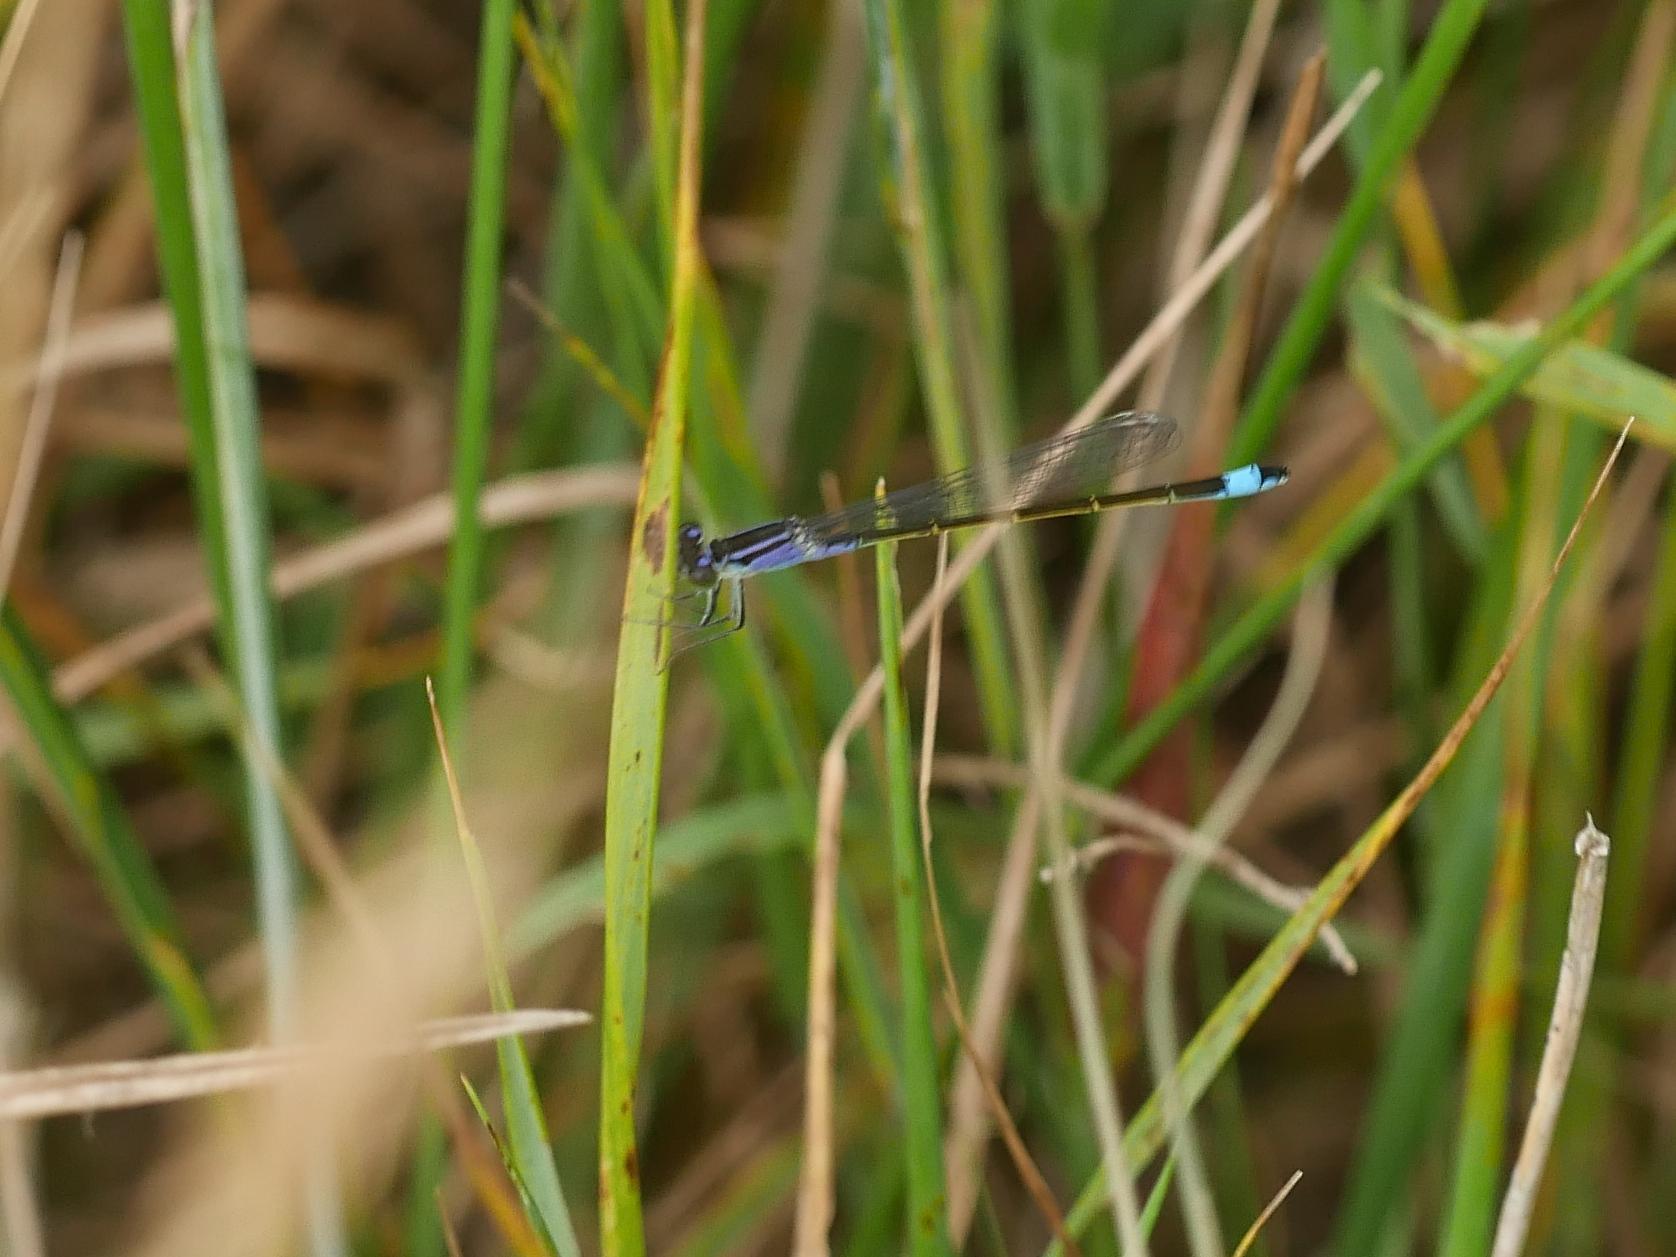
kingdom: Animalia
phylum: Arthropoda
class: Insecta
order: Odonata
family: Coenagrionidae
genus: Ischnura
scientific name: Ischnura elegans
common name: Blue-tailed damselfly
